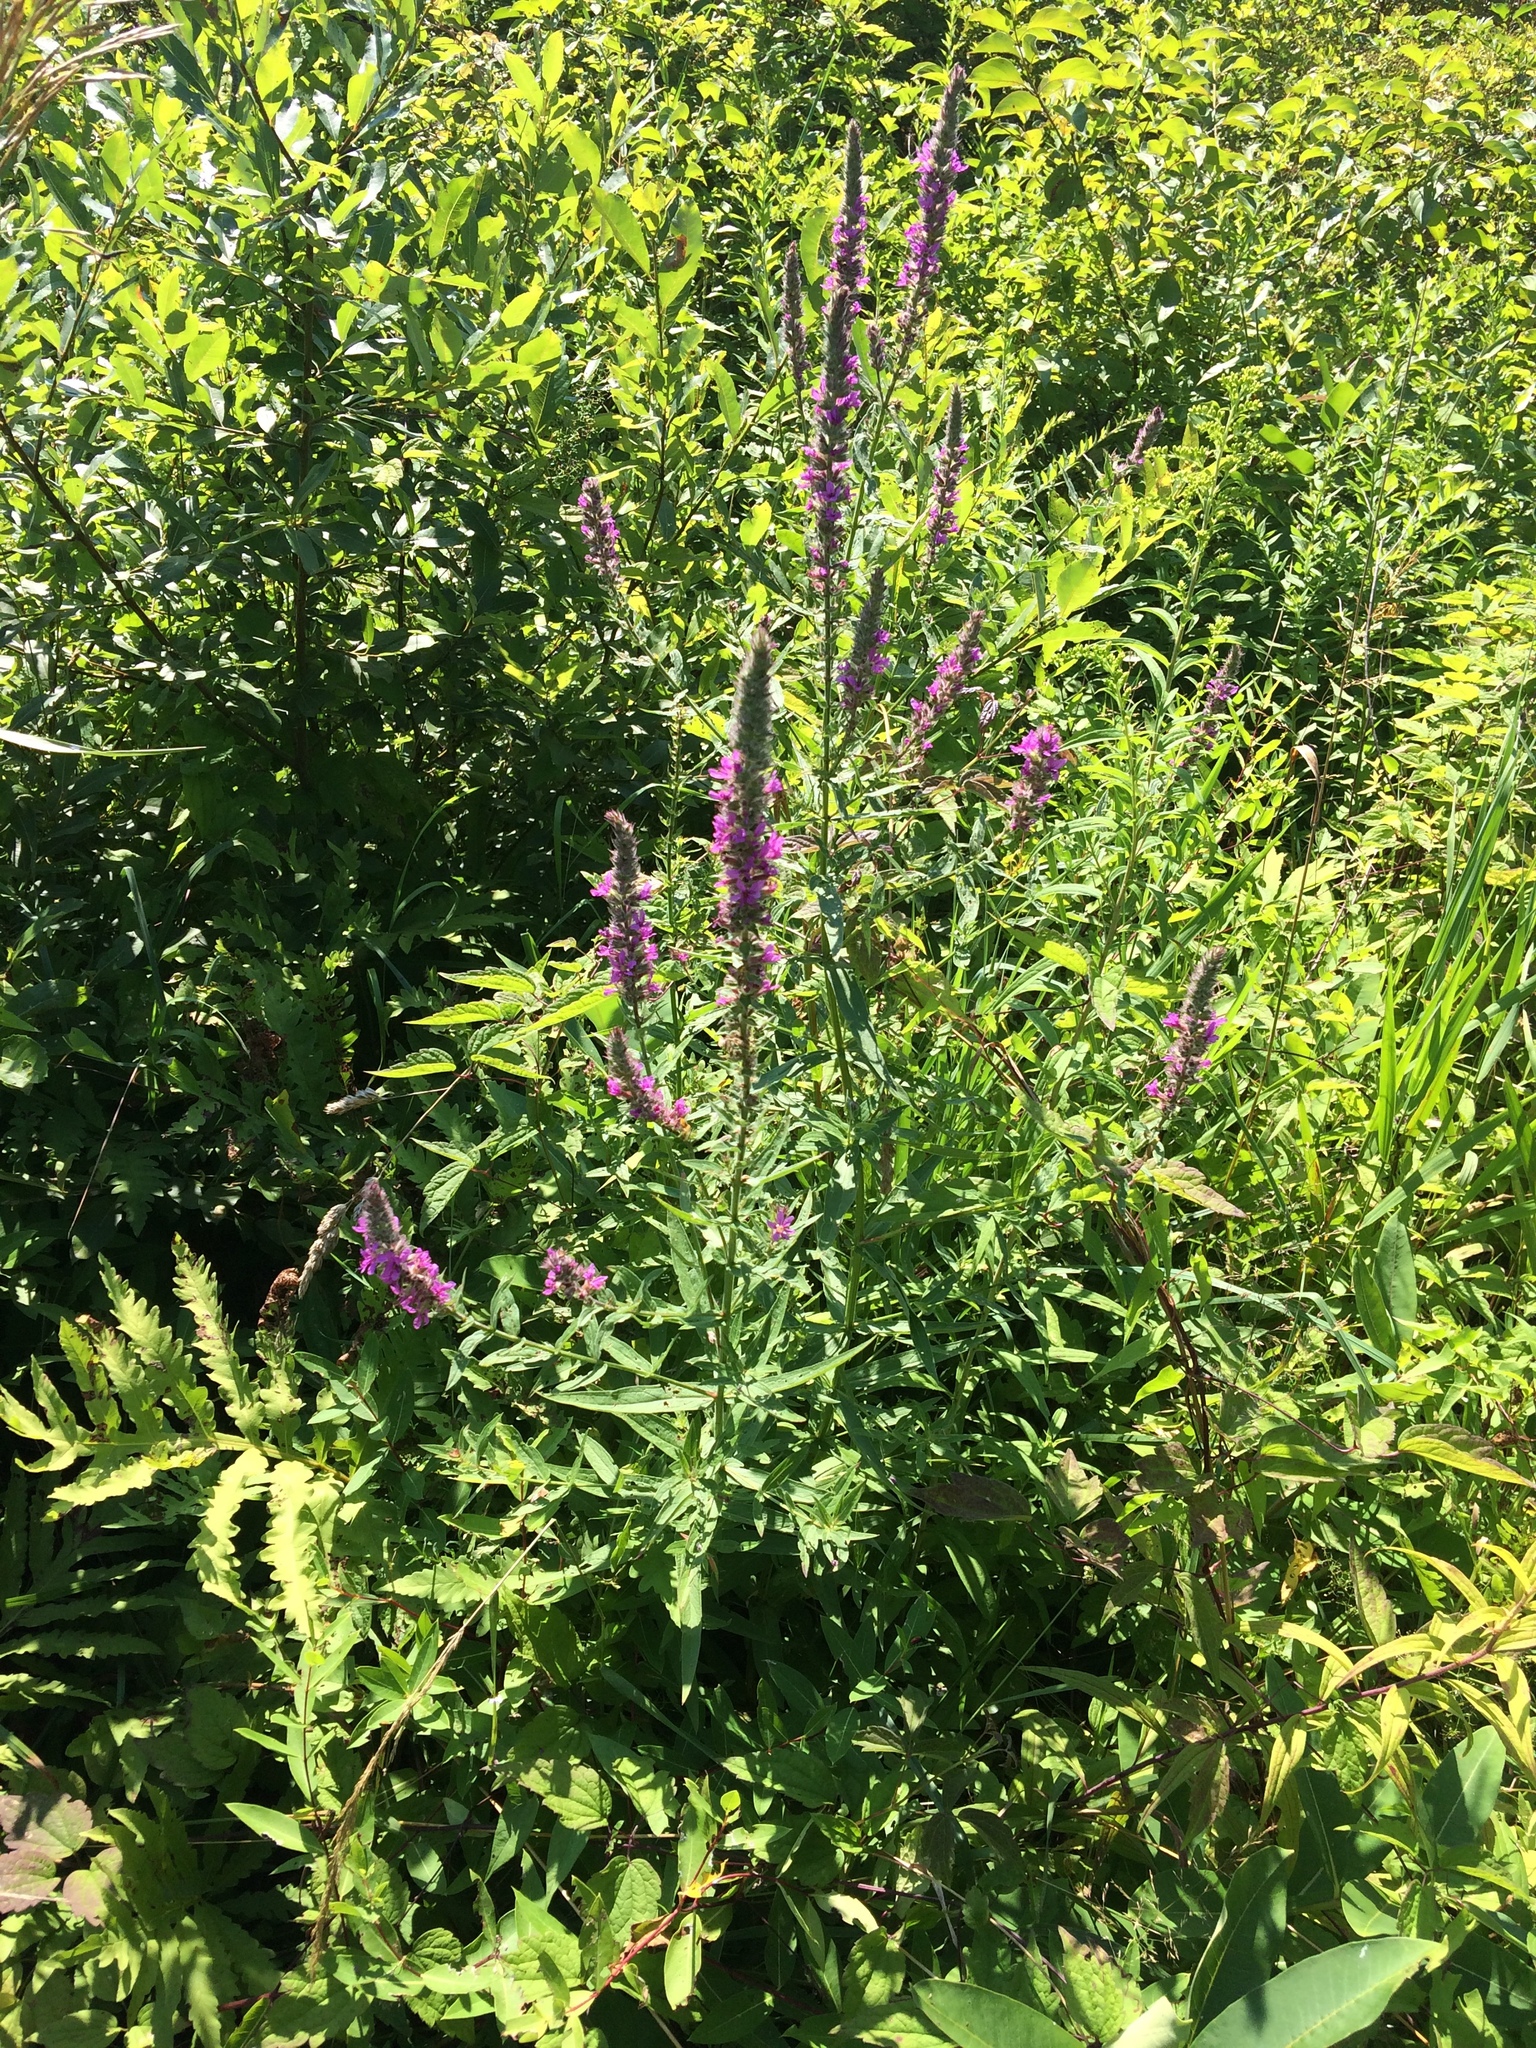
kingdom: Plantae
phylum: Tracheophyta
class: Magnoliopsida
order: Myrtales
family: Lythraceae
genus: Lythrum
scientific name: Lythrum salicaria
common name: Purple loosestrife
